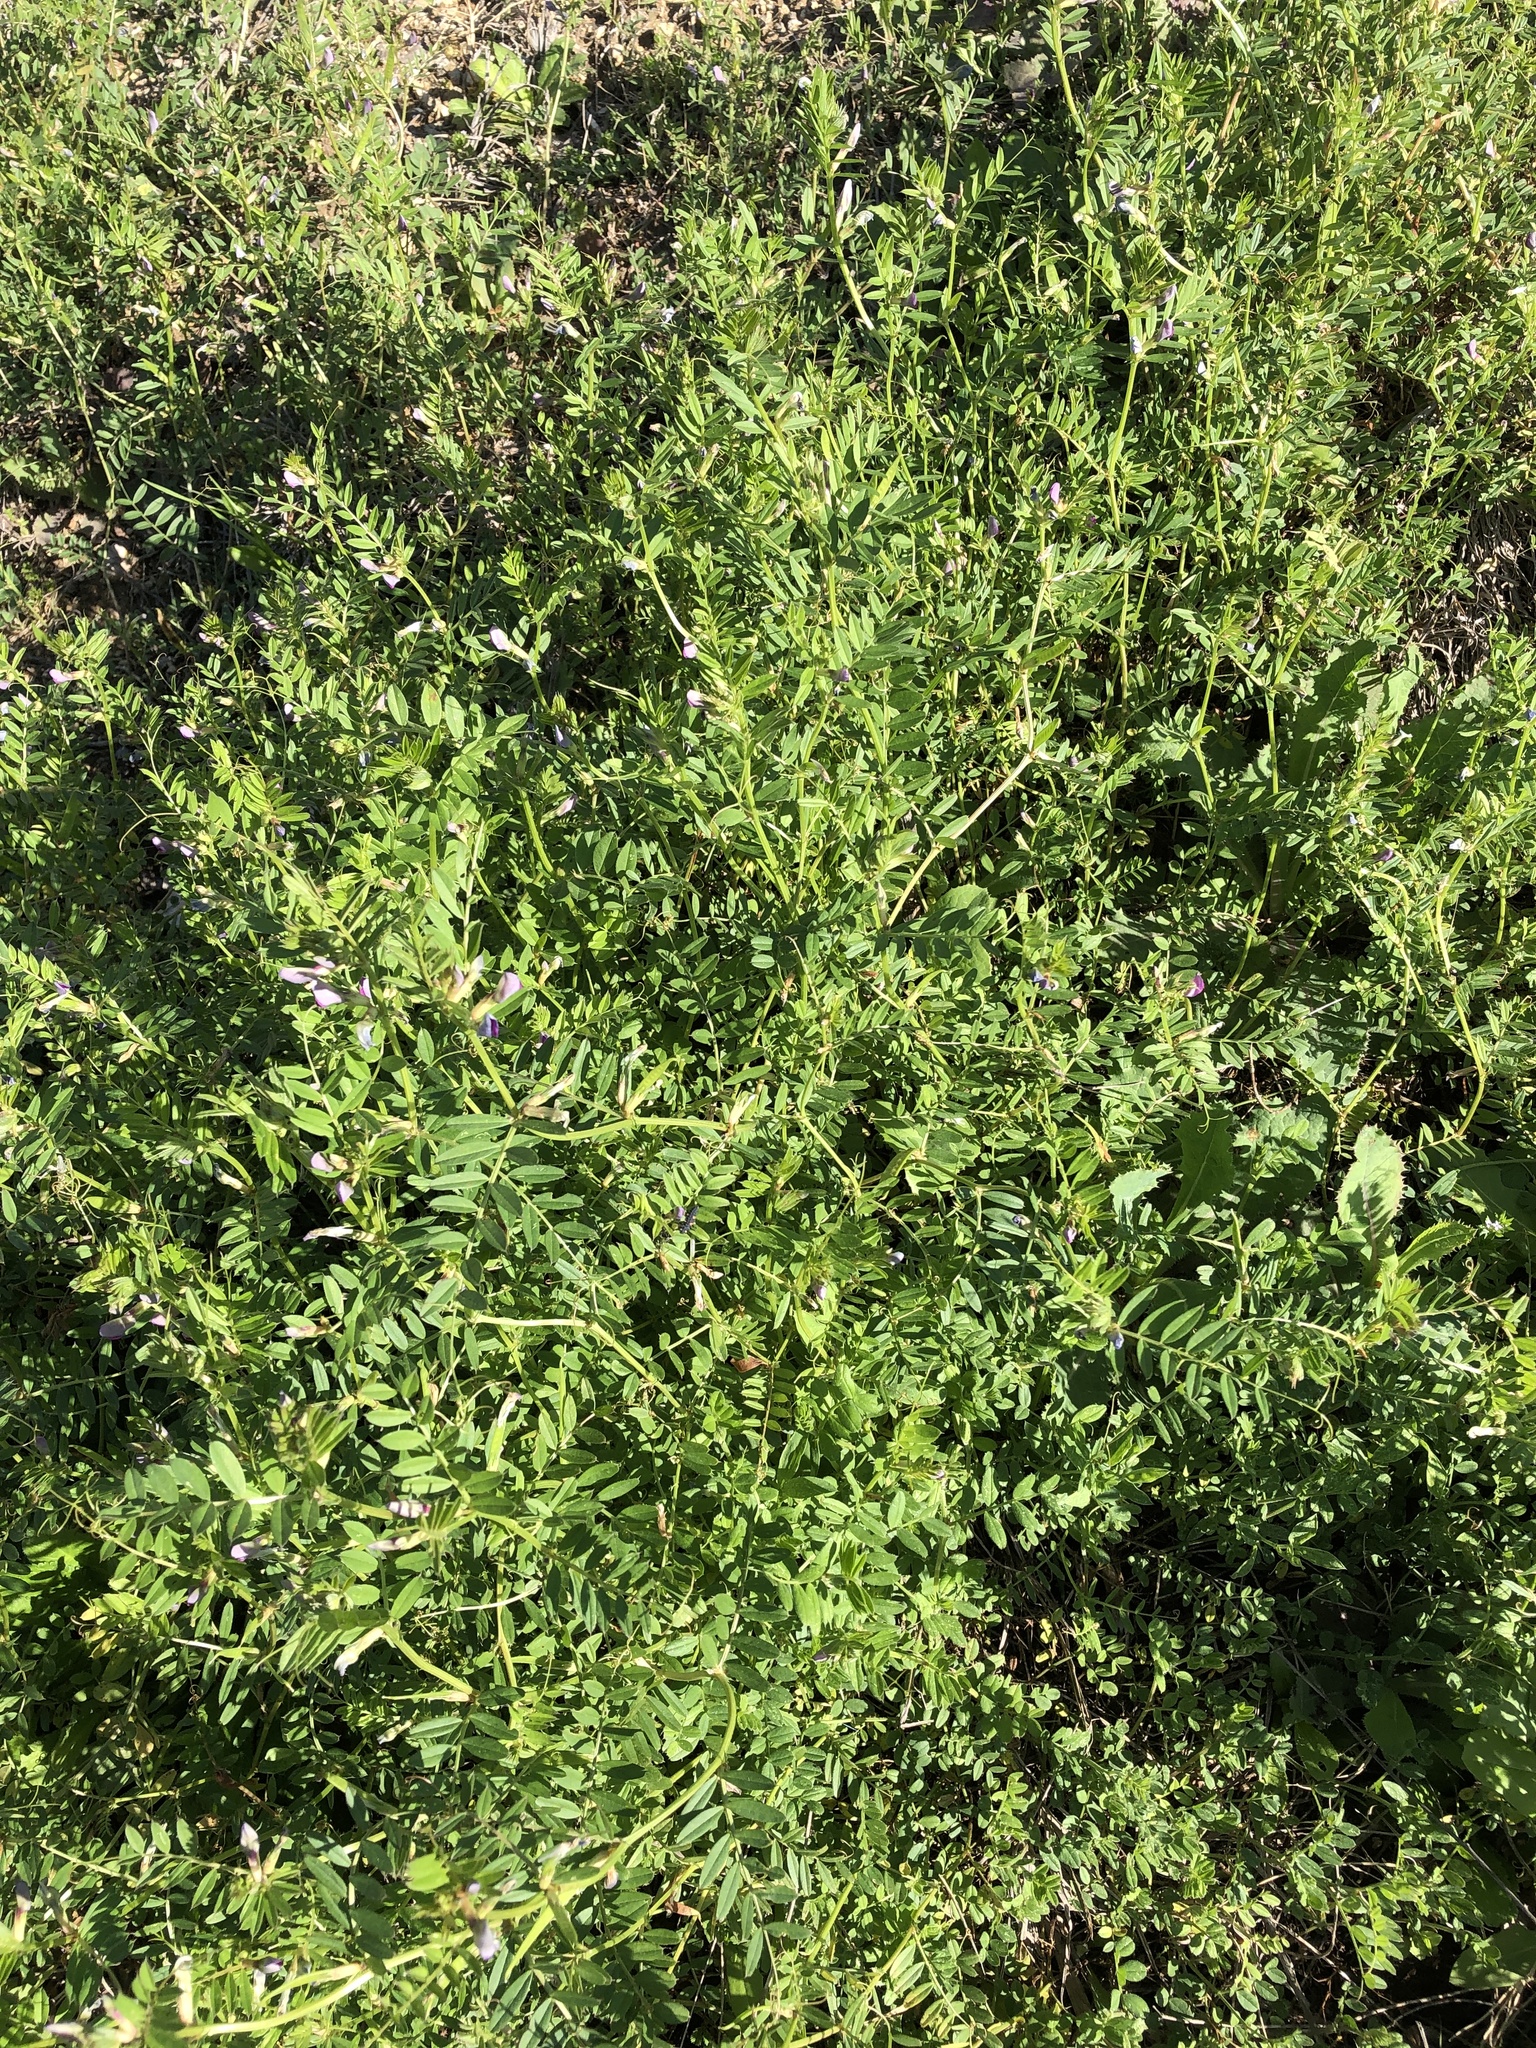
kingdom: Plantae
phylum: Tracheophyta
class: Magnoliopsida
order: Fabales
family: Fabaceae
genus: Vicia
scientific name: Vicia sativa
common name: Garden vetch
